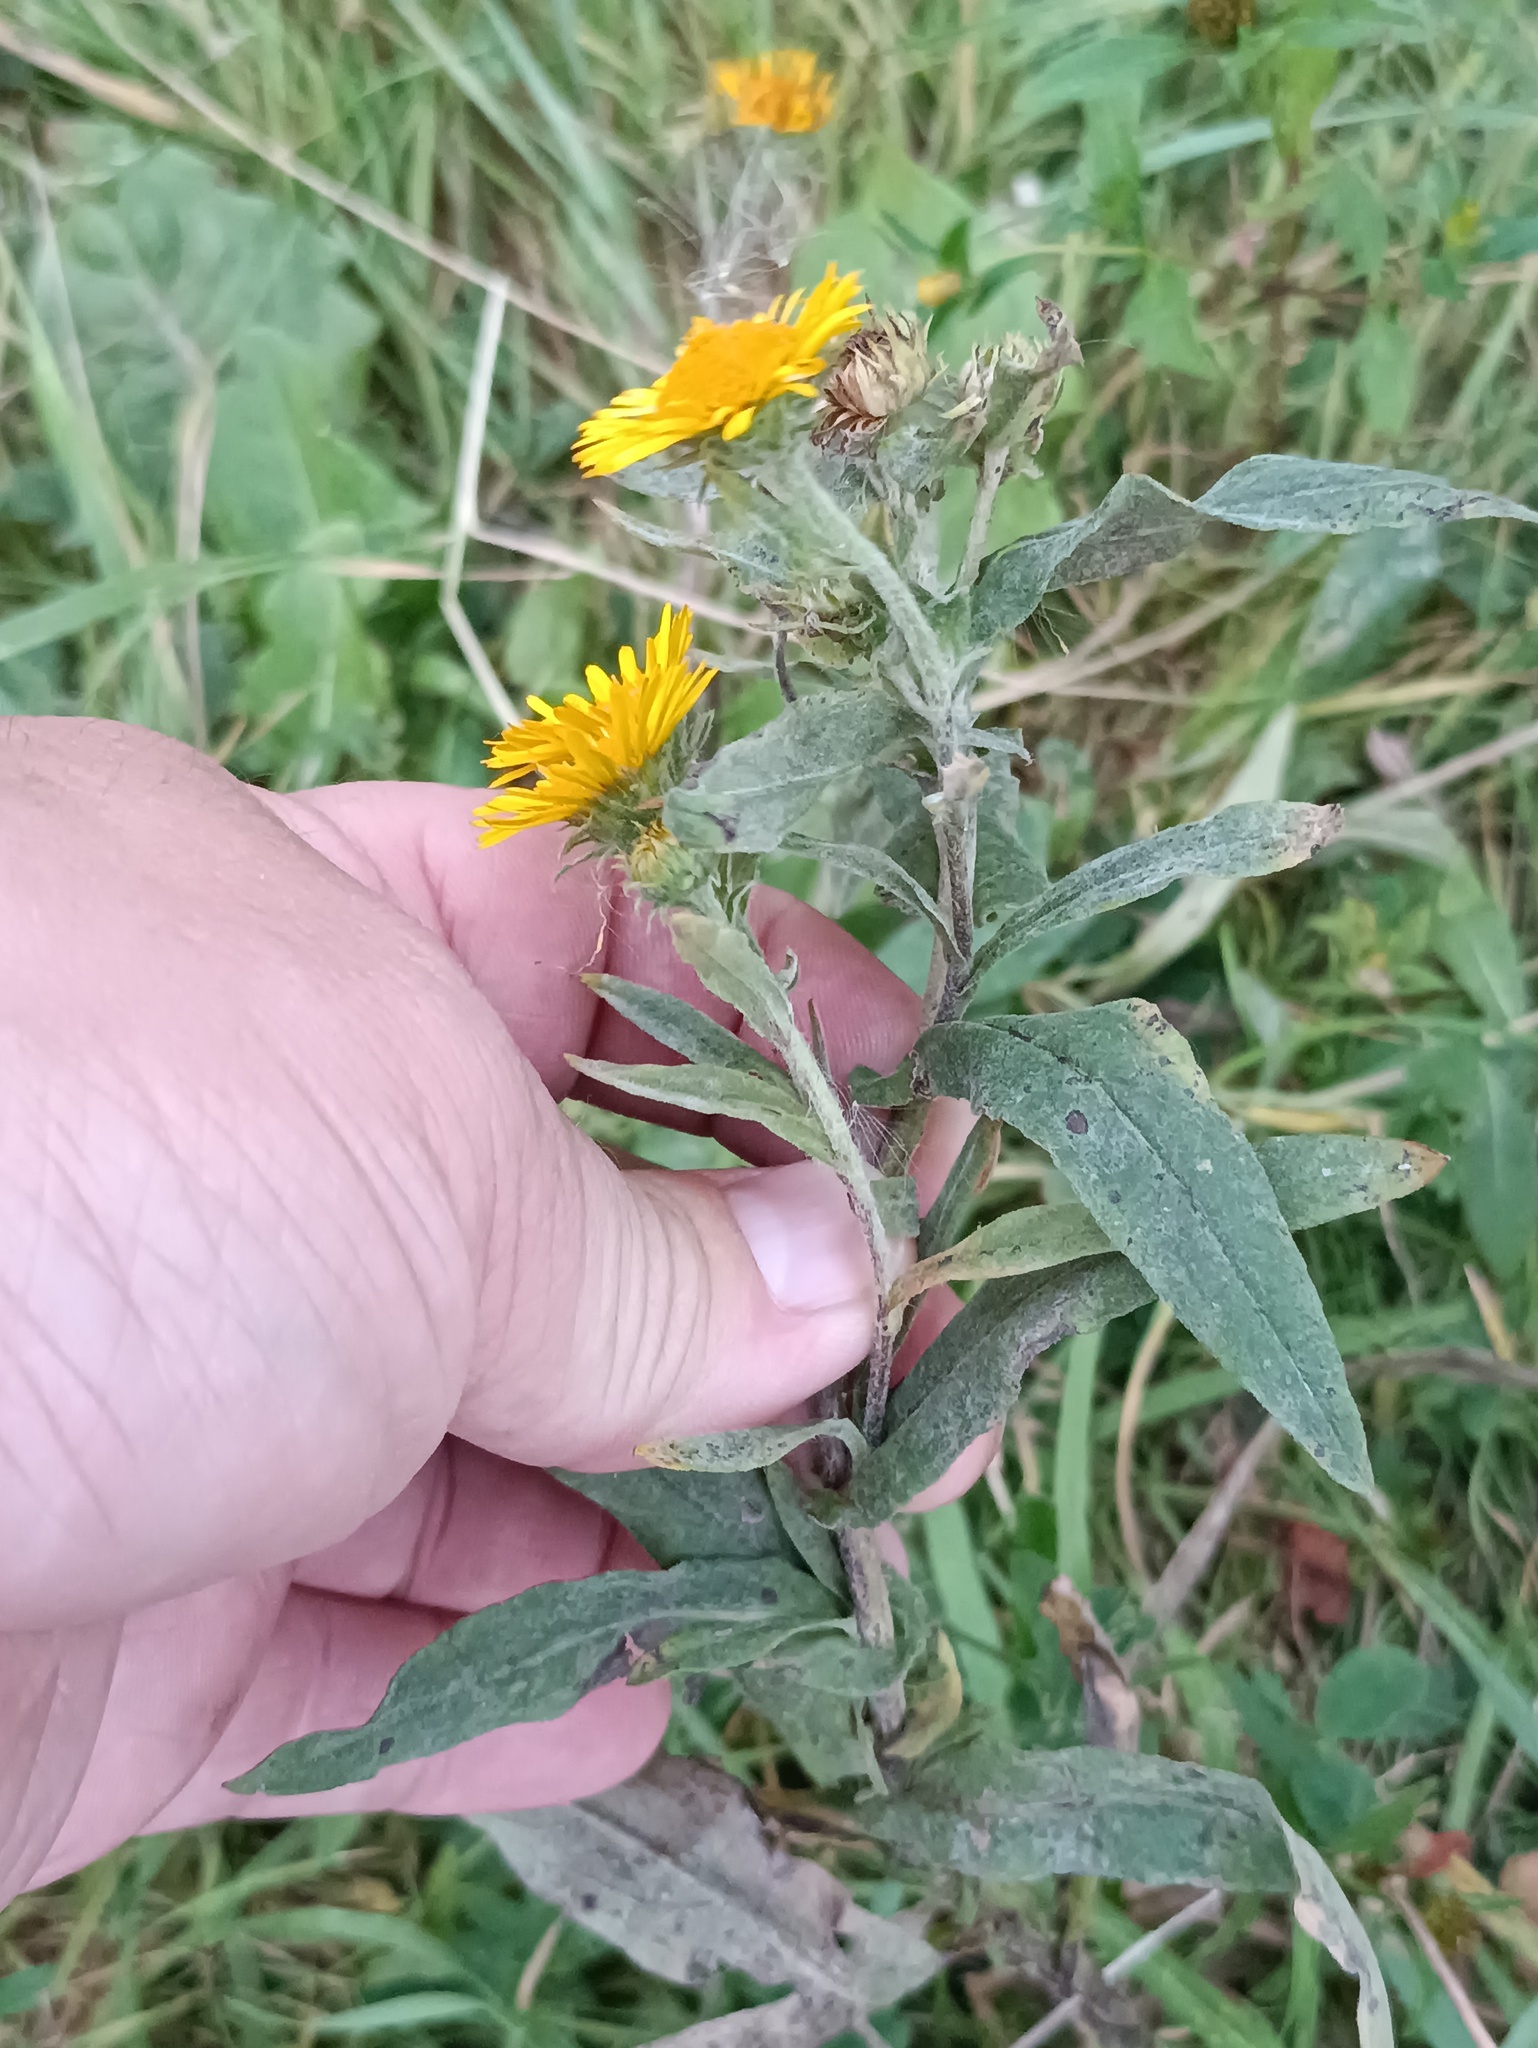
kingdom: Plantae
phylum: Tracheophyta
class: Magnoliopsida
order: Asterales
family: Asteraceae
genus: Pentanema
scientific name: Pentanema britannicum
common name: British elecampane
